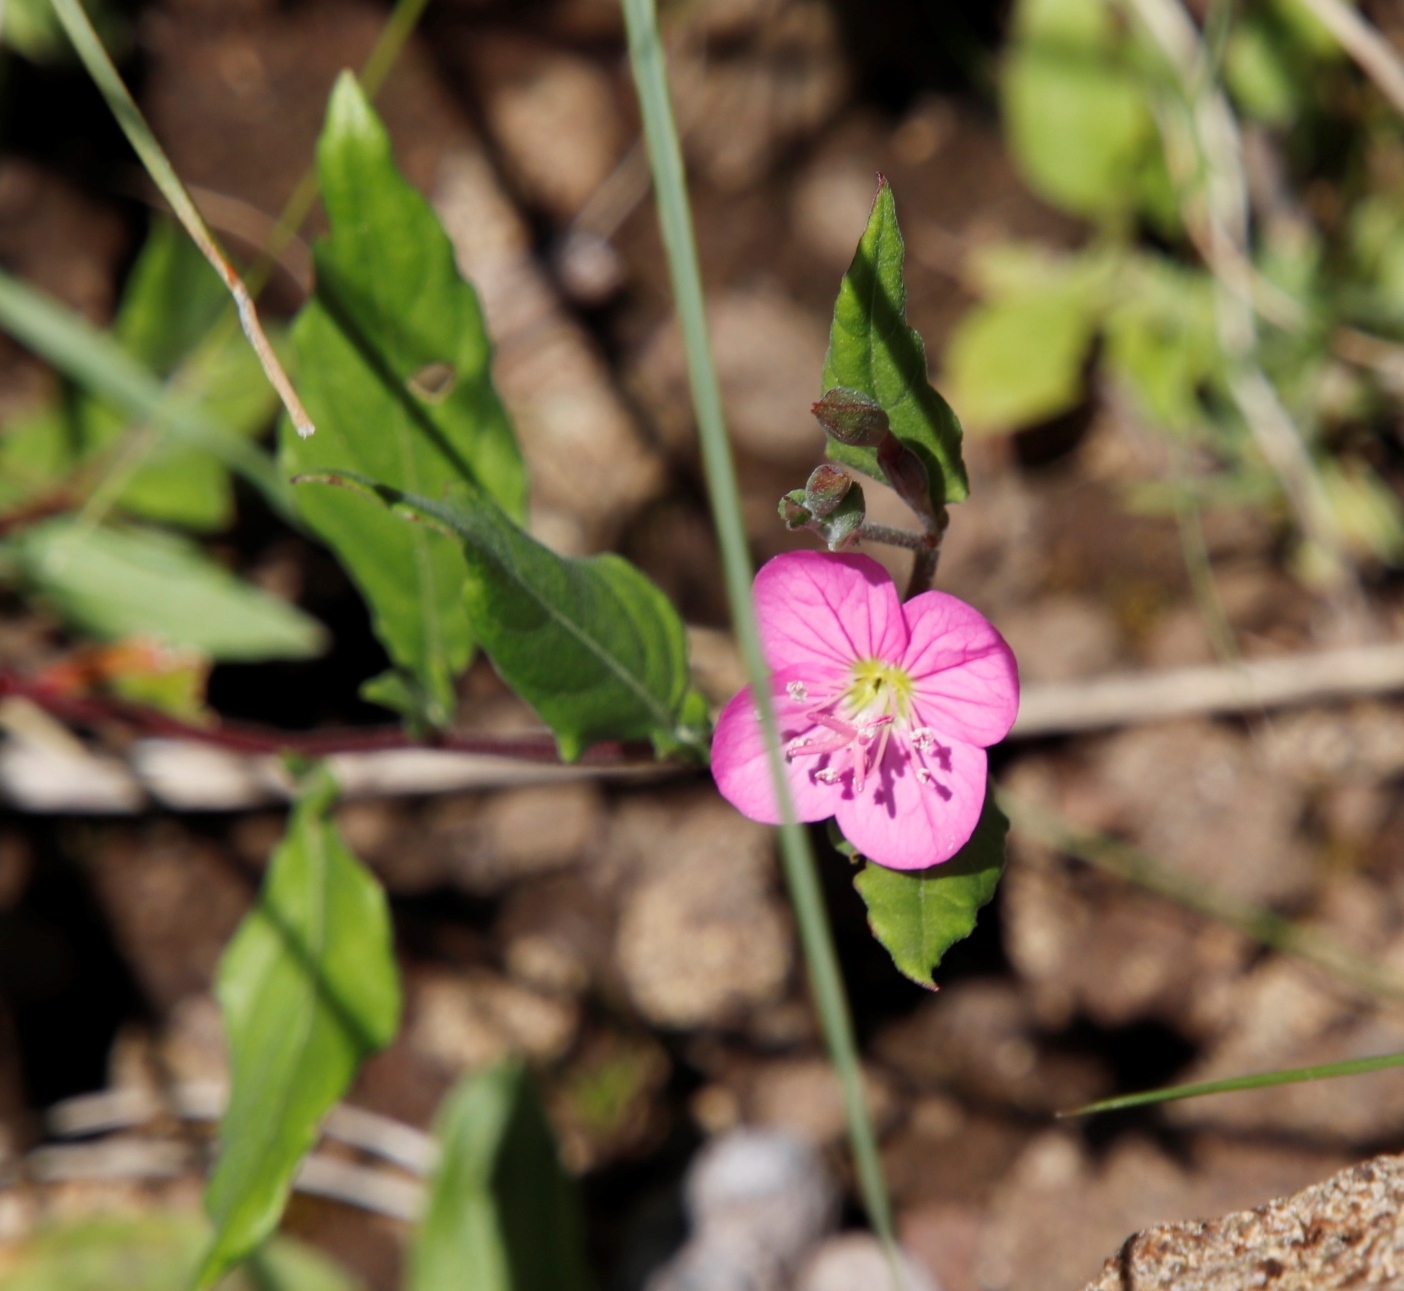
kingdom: Plantae
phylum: Tracheophyta
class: Magnoliopsida
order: Myrtales
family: Onagraceae
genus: Oenothera
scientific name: Oenothera rosea
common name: Rosy evening-primrose
